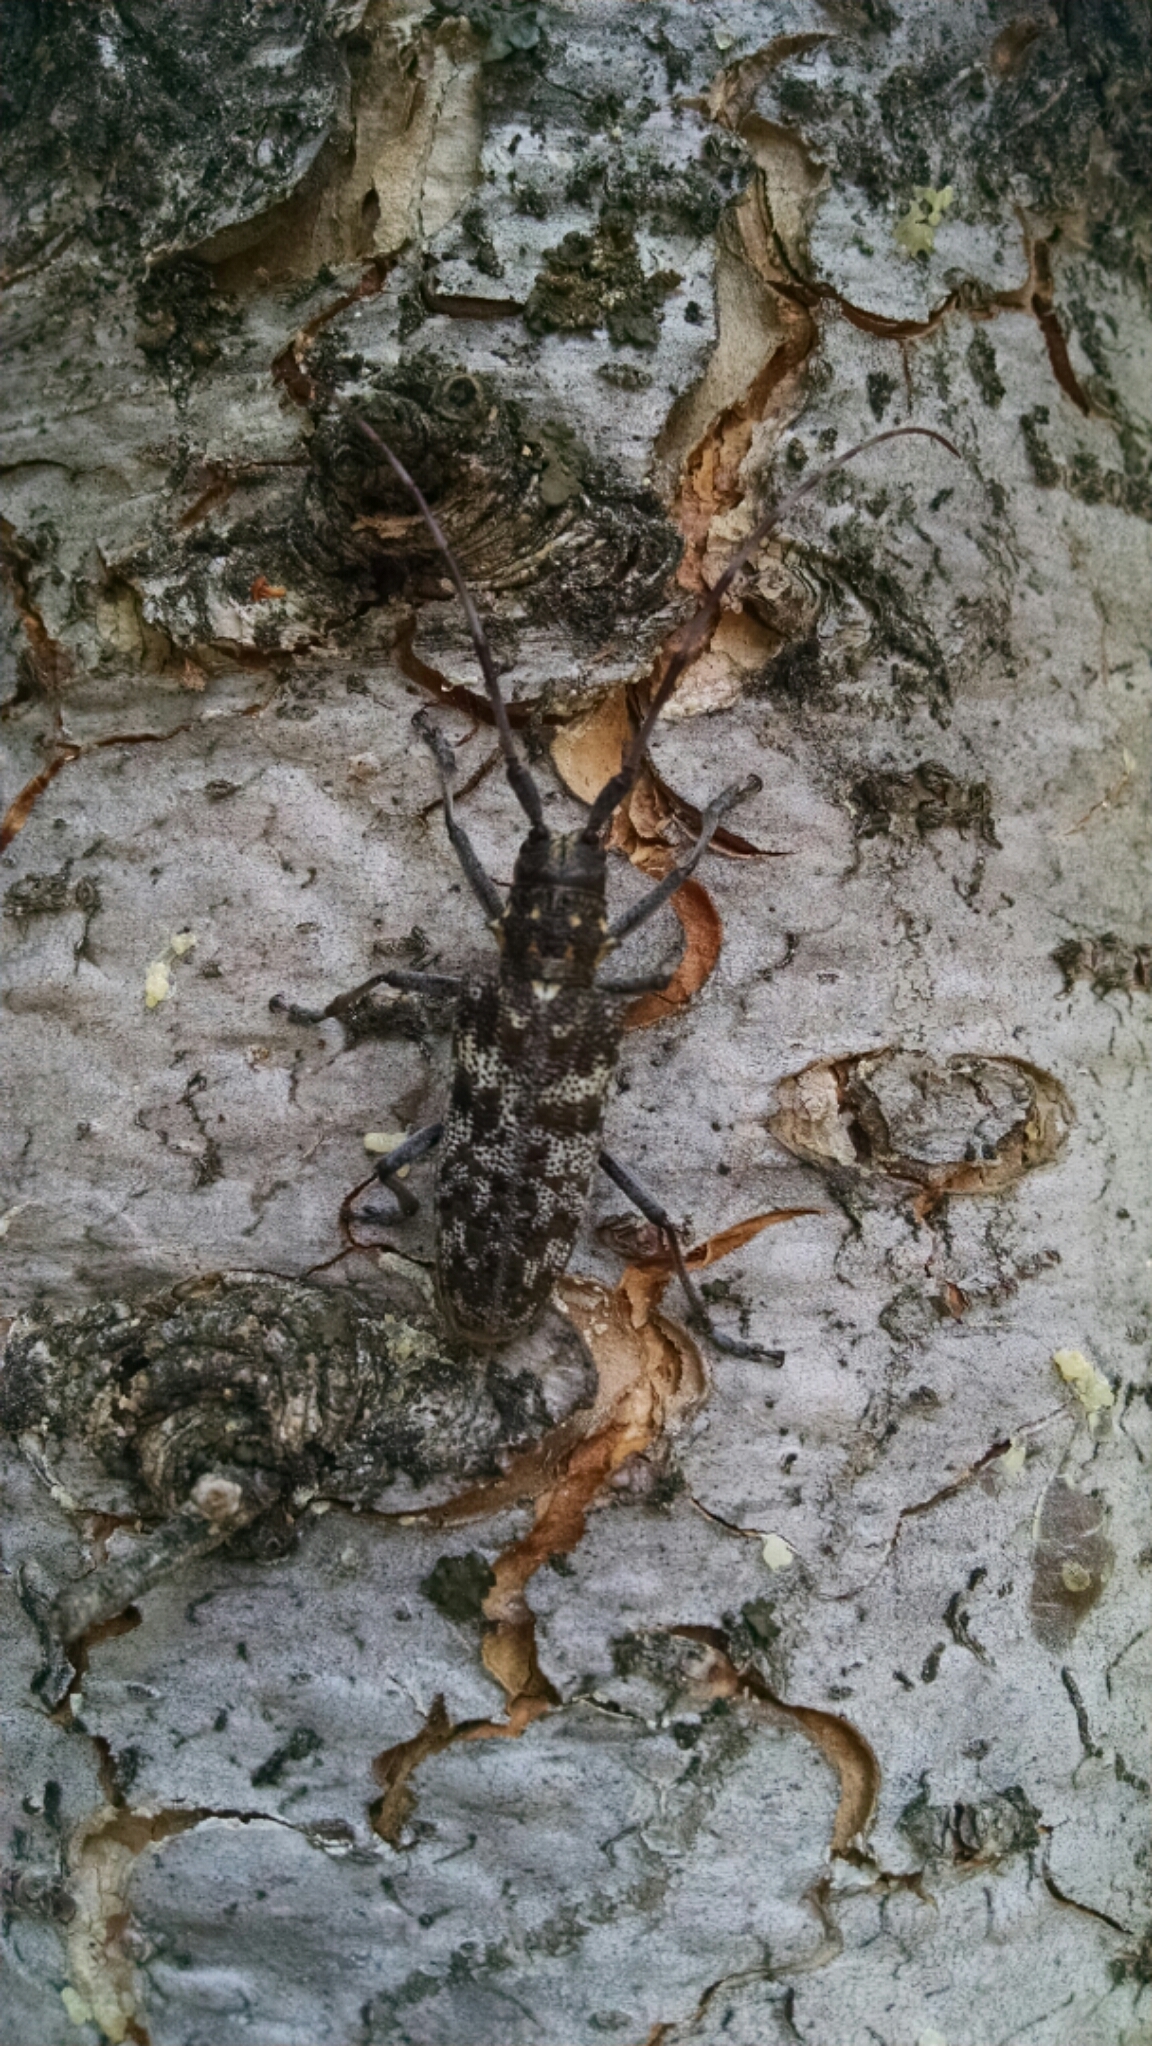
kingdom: Animalia
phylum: Arthropoda
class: Insecta
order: Coleoptera
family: Cerambycidae
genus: Monochamus
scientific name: Monochamus clamator
